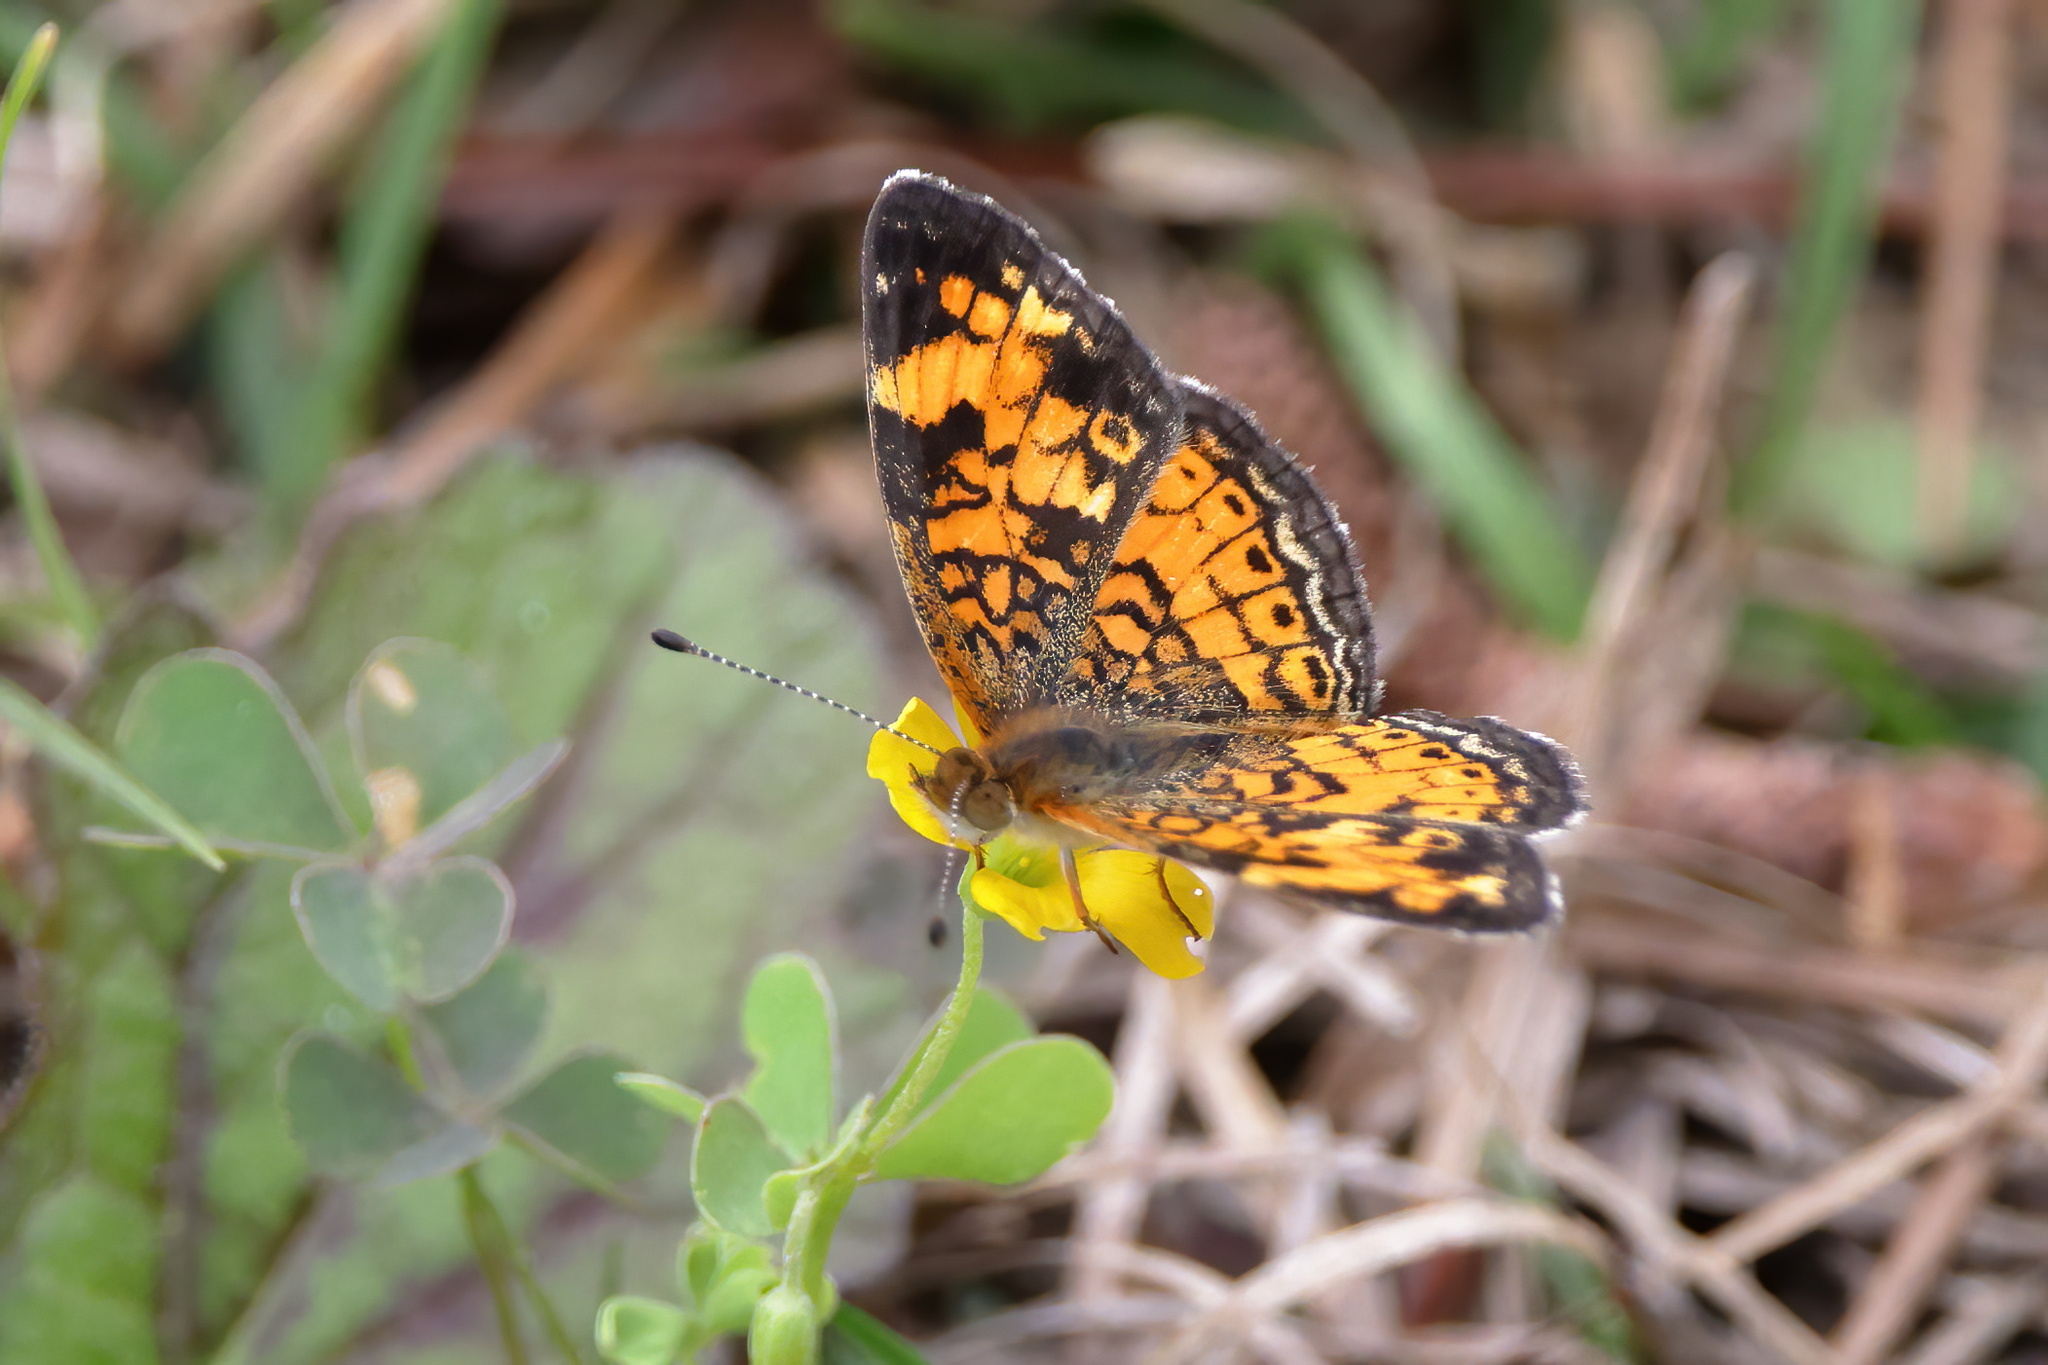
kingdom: Animalia
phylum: Arthropoda
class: Insecta
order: Lepidoptera
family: Nymphalidae
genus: Phyciodes
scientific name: Phyciodes tharos
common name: Pearl crescent
